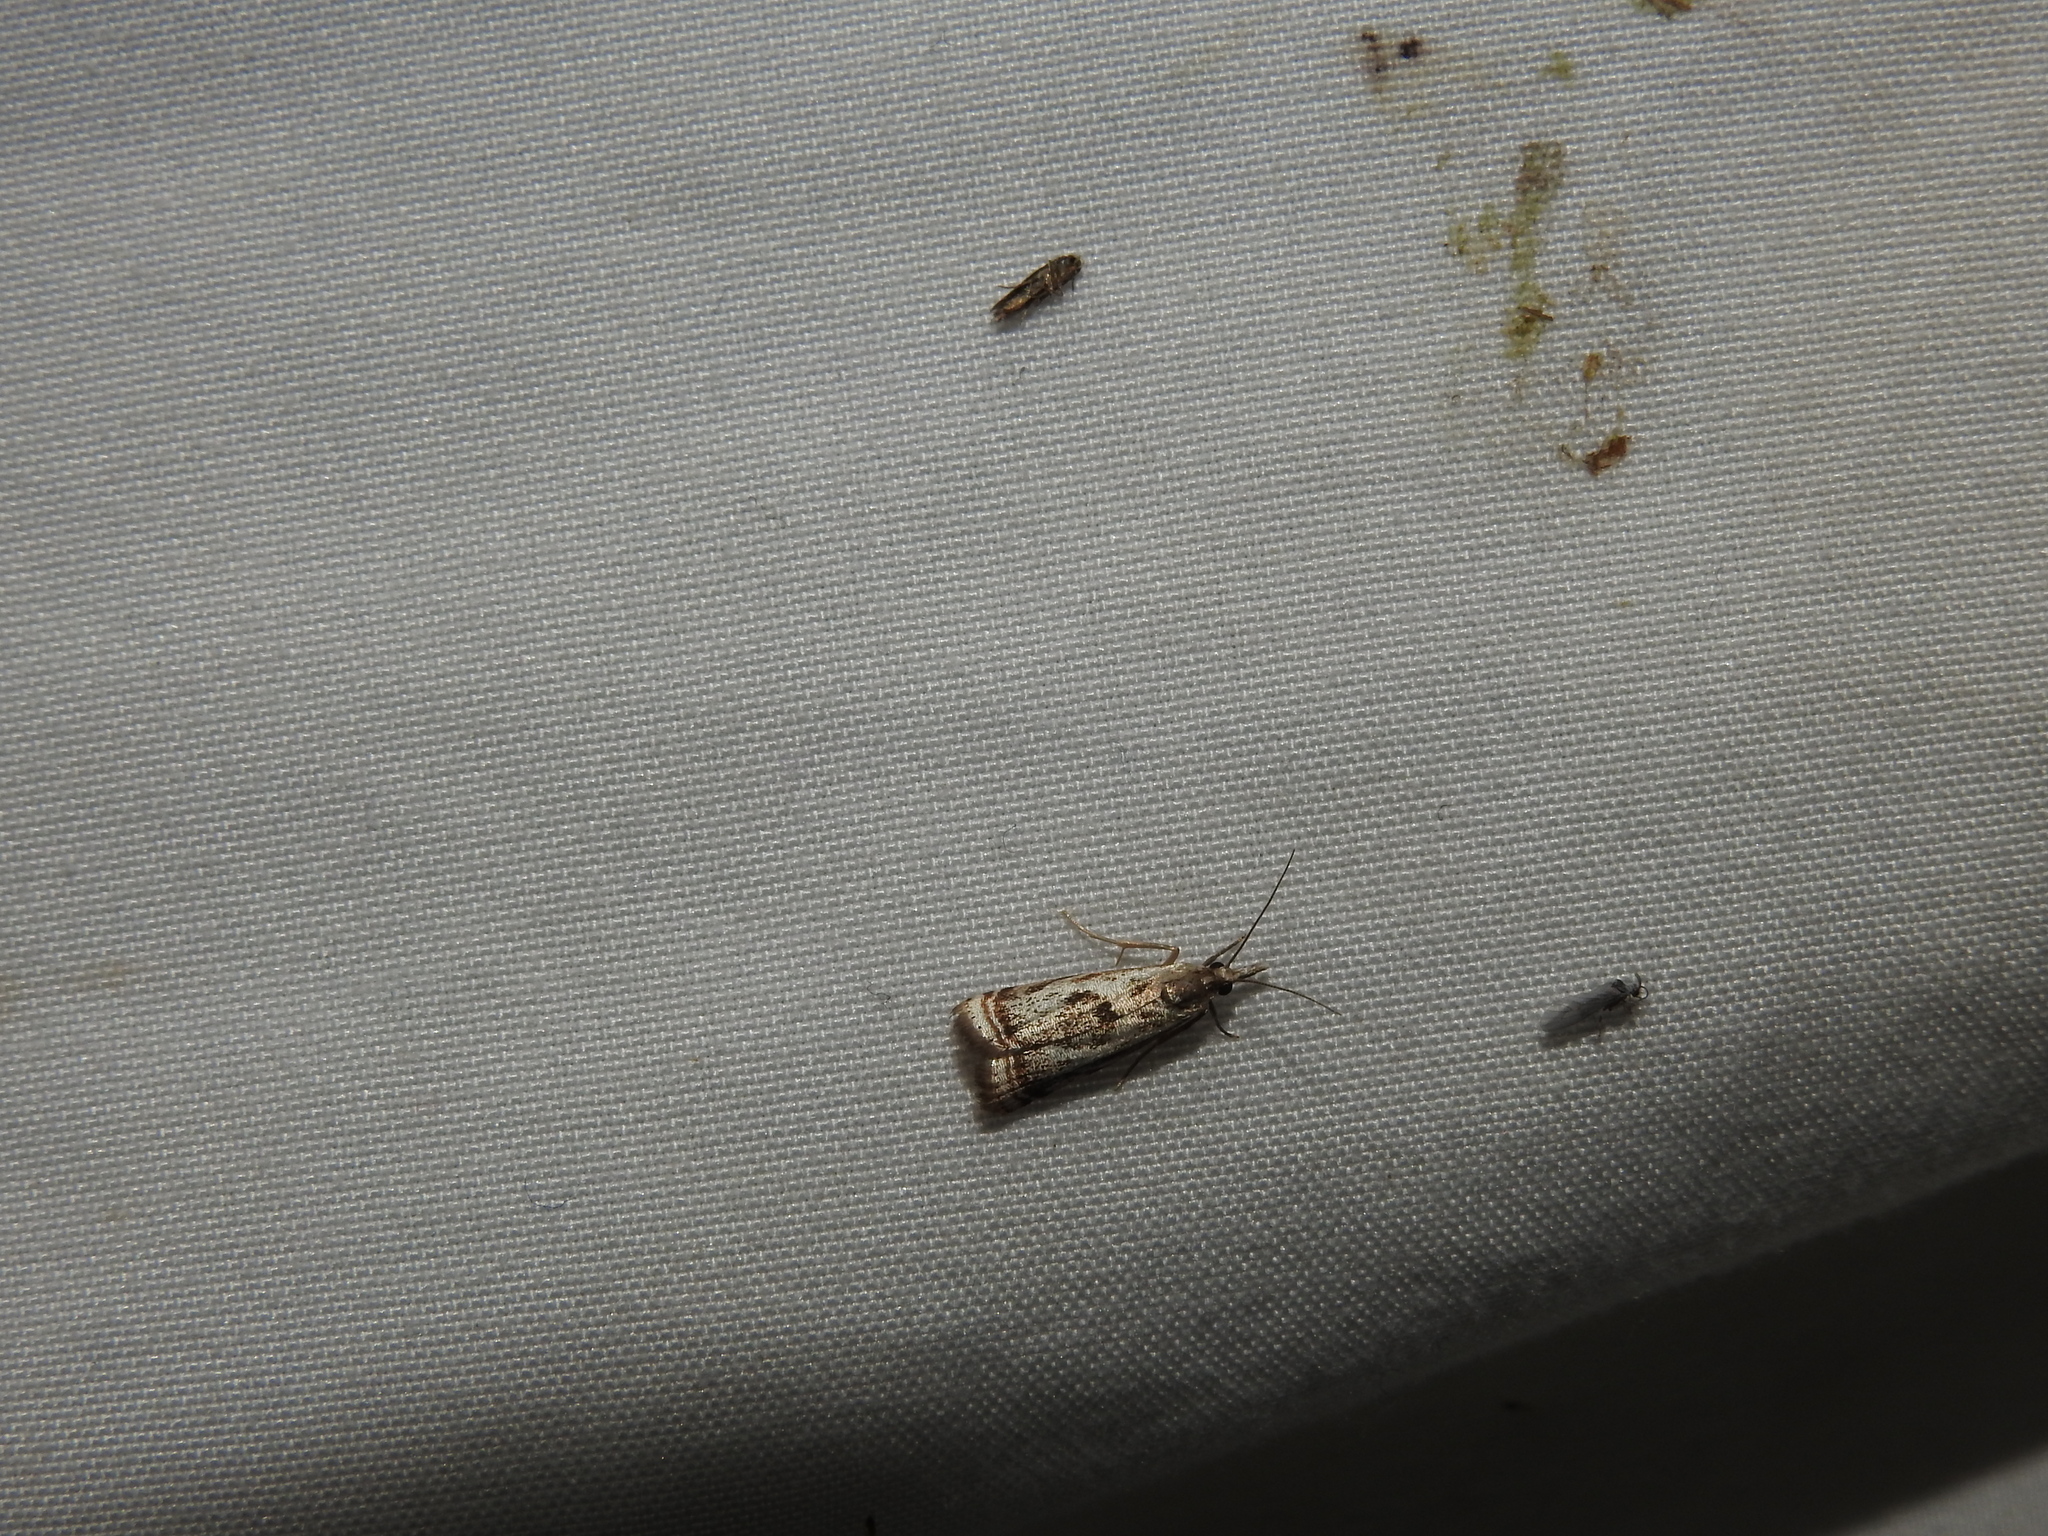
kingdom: Animalia
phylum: Arthropoda
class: Insecta
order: Lepidoptera
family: Crambidae
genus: Microcrambus
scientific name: Microcrambus elegans
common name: Elegant grass-veneer
